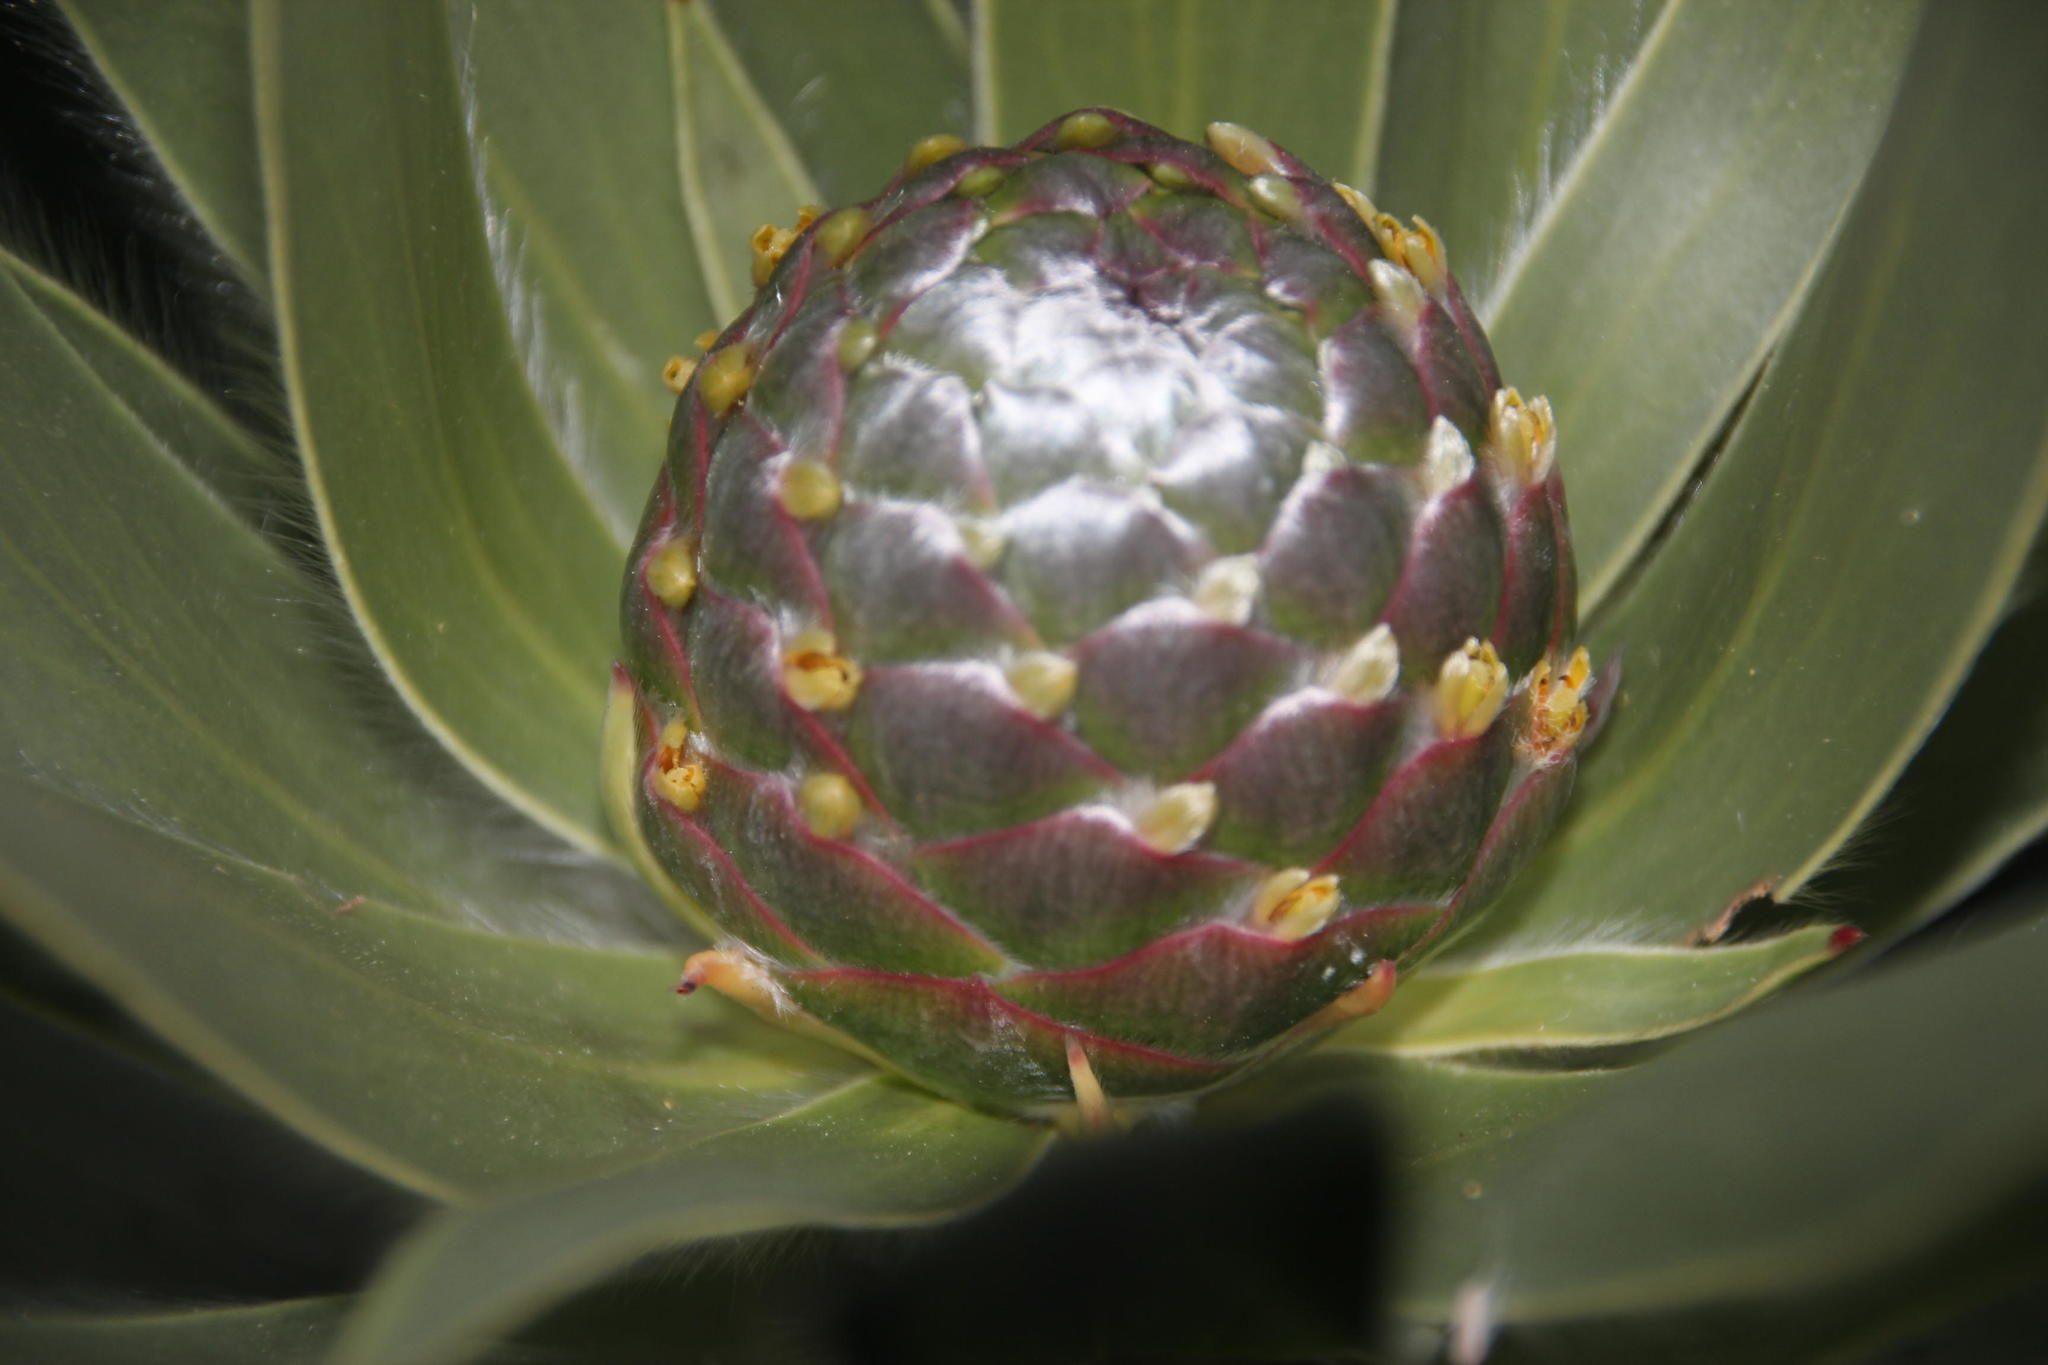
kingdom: Plantae
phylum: Tracheophyta
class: Magnoliopsida
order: Proteales
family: Proteaceae
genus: Leucadendron
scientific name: Leucadendron argenteum
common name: Cape silver tree
